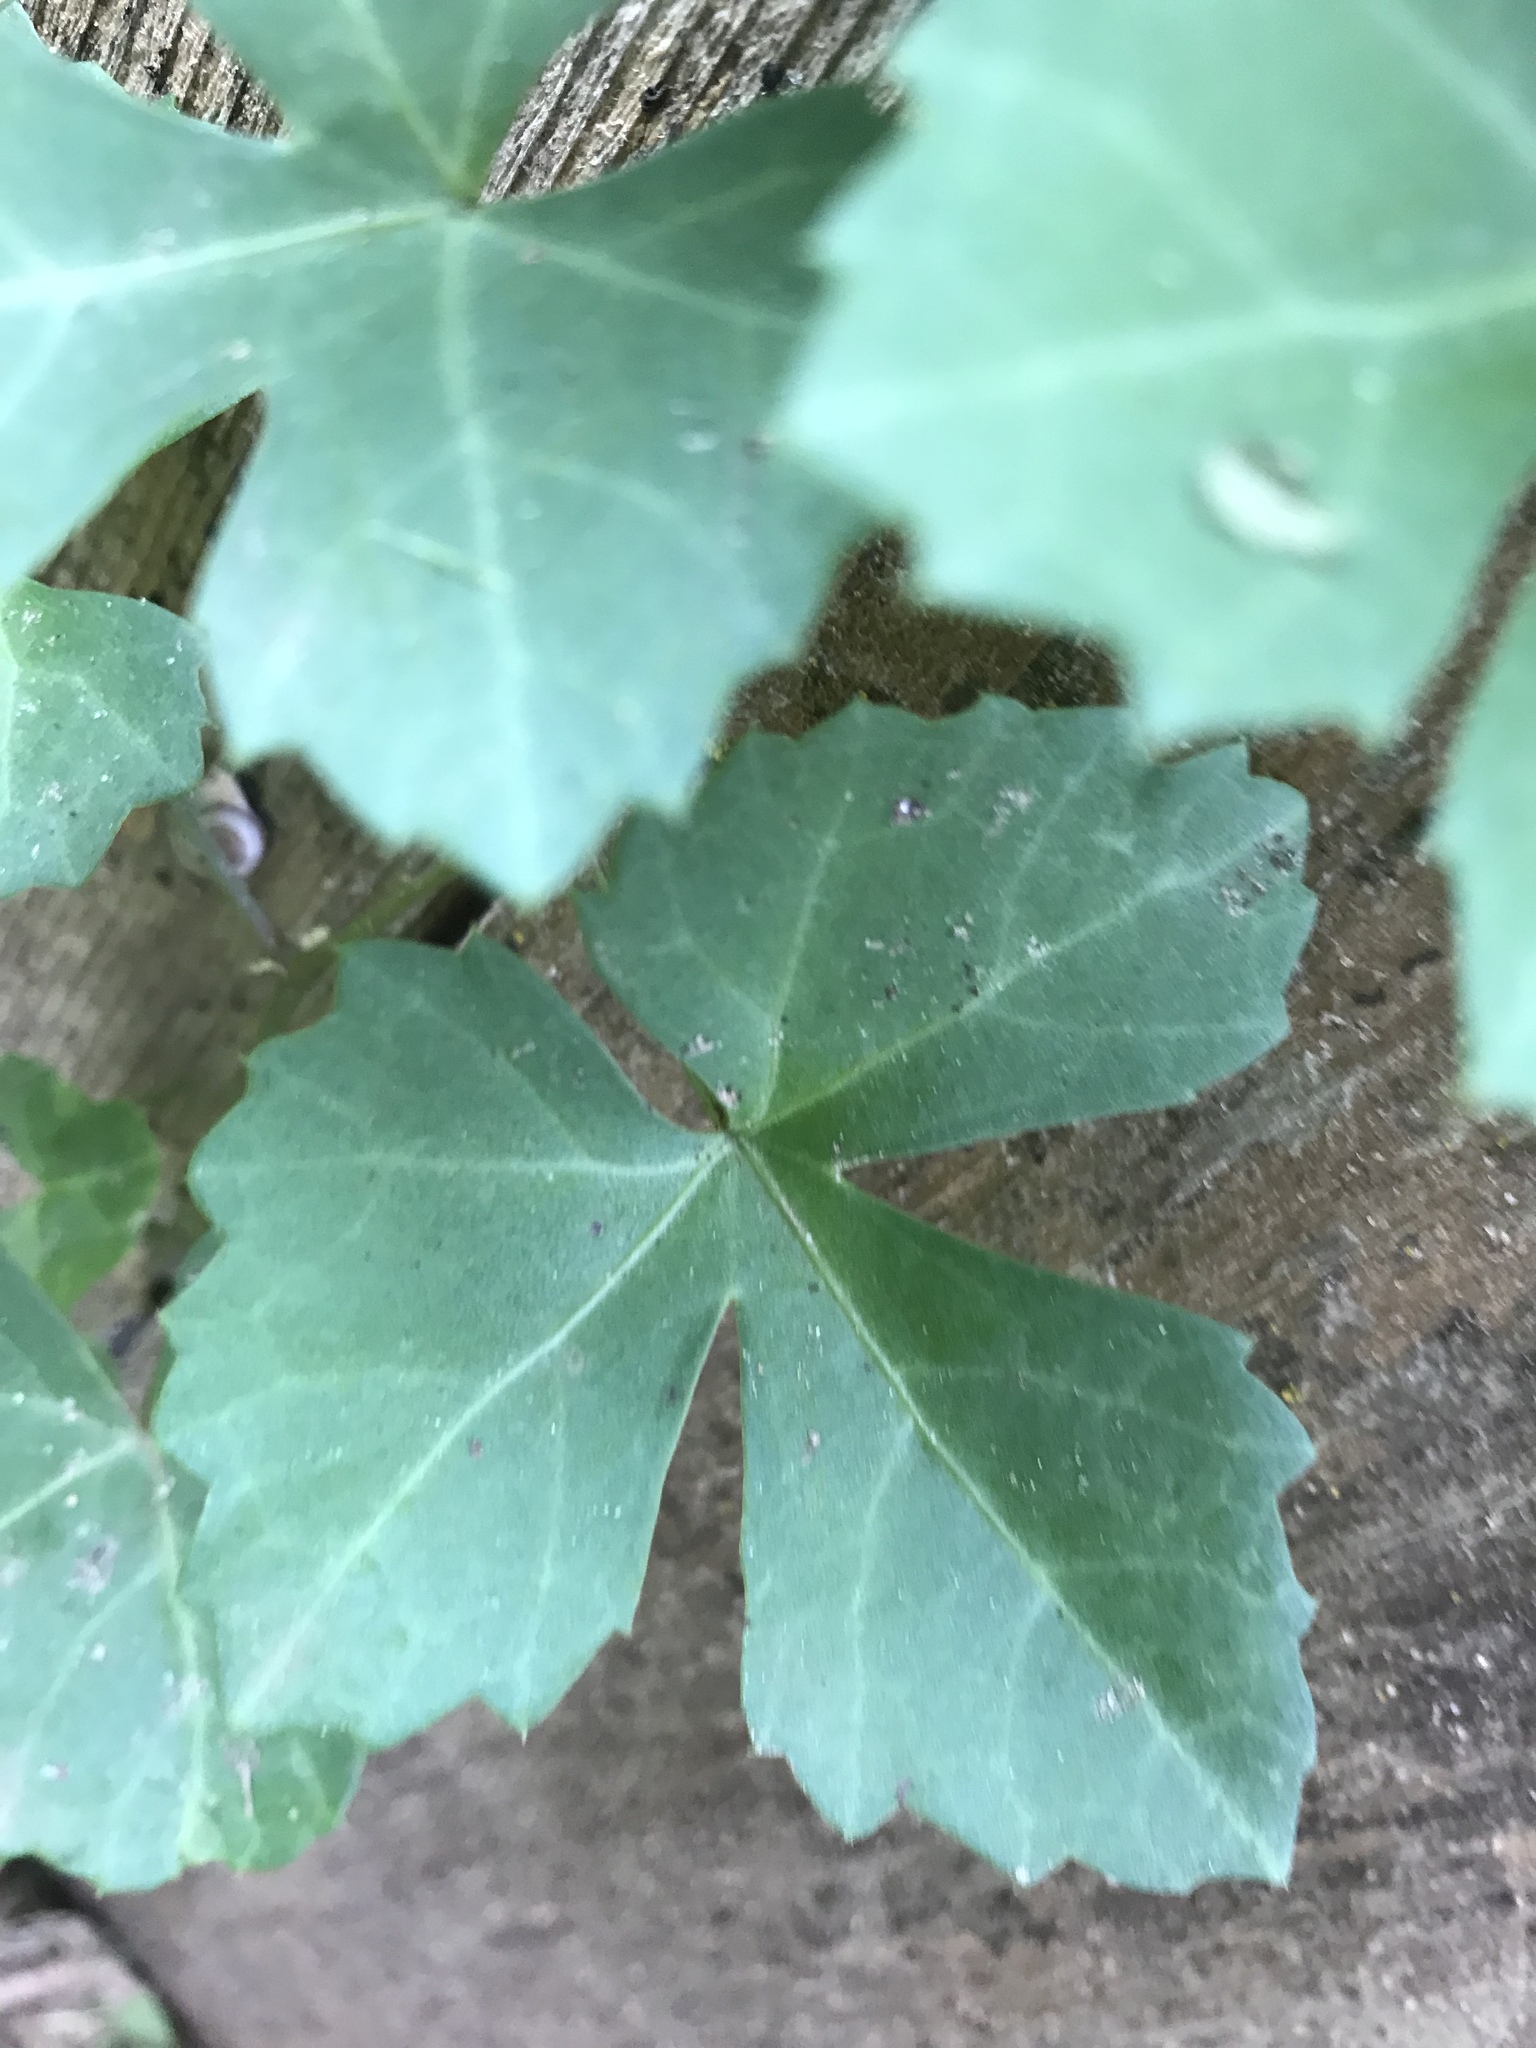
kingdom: Plantae
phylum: Tracheophyta
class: Magnoliopsida
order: Vitales
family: Vitaceae
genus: Cissus
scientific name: Cissus trifoliata
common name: Vine-sorrel
